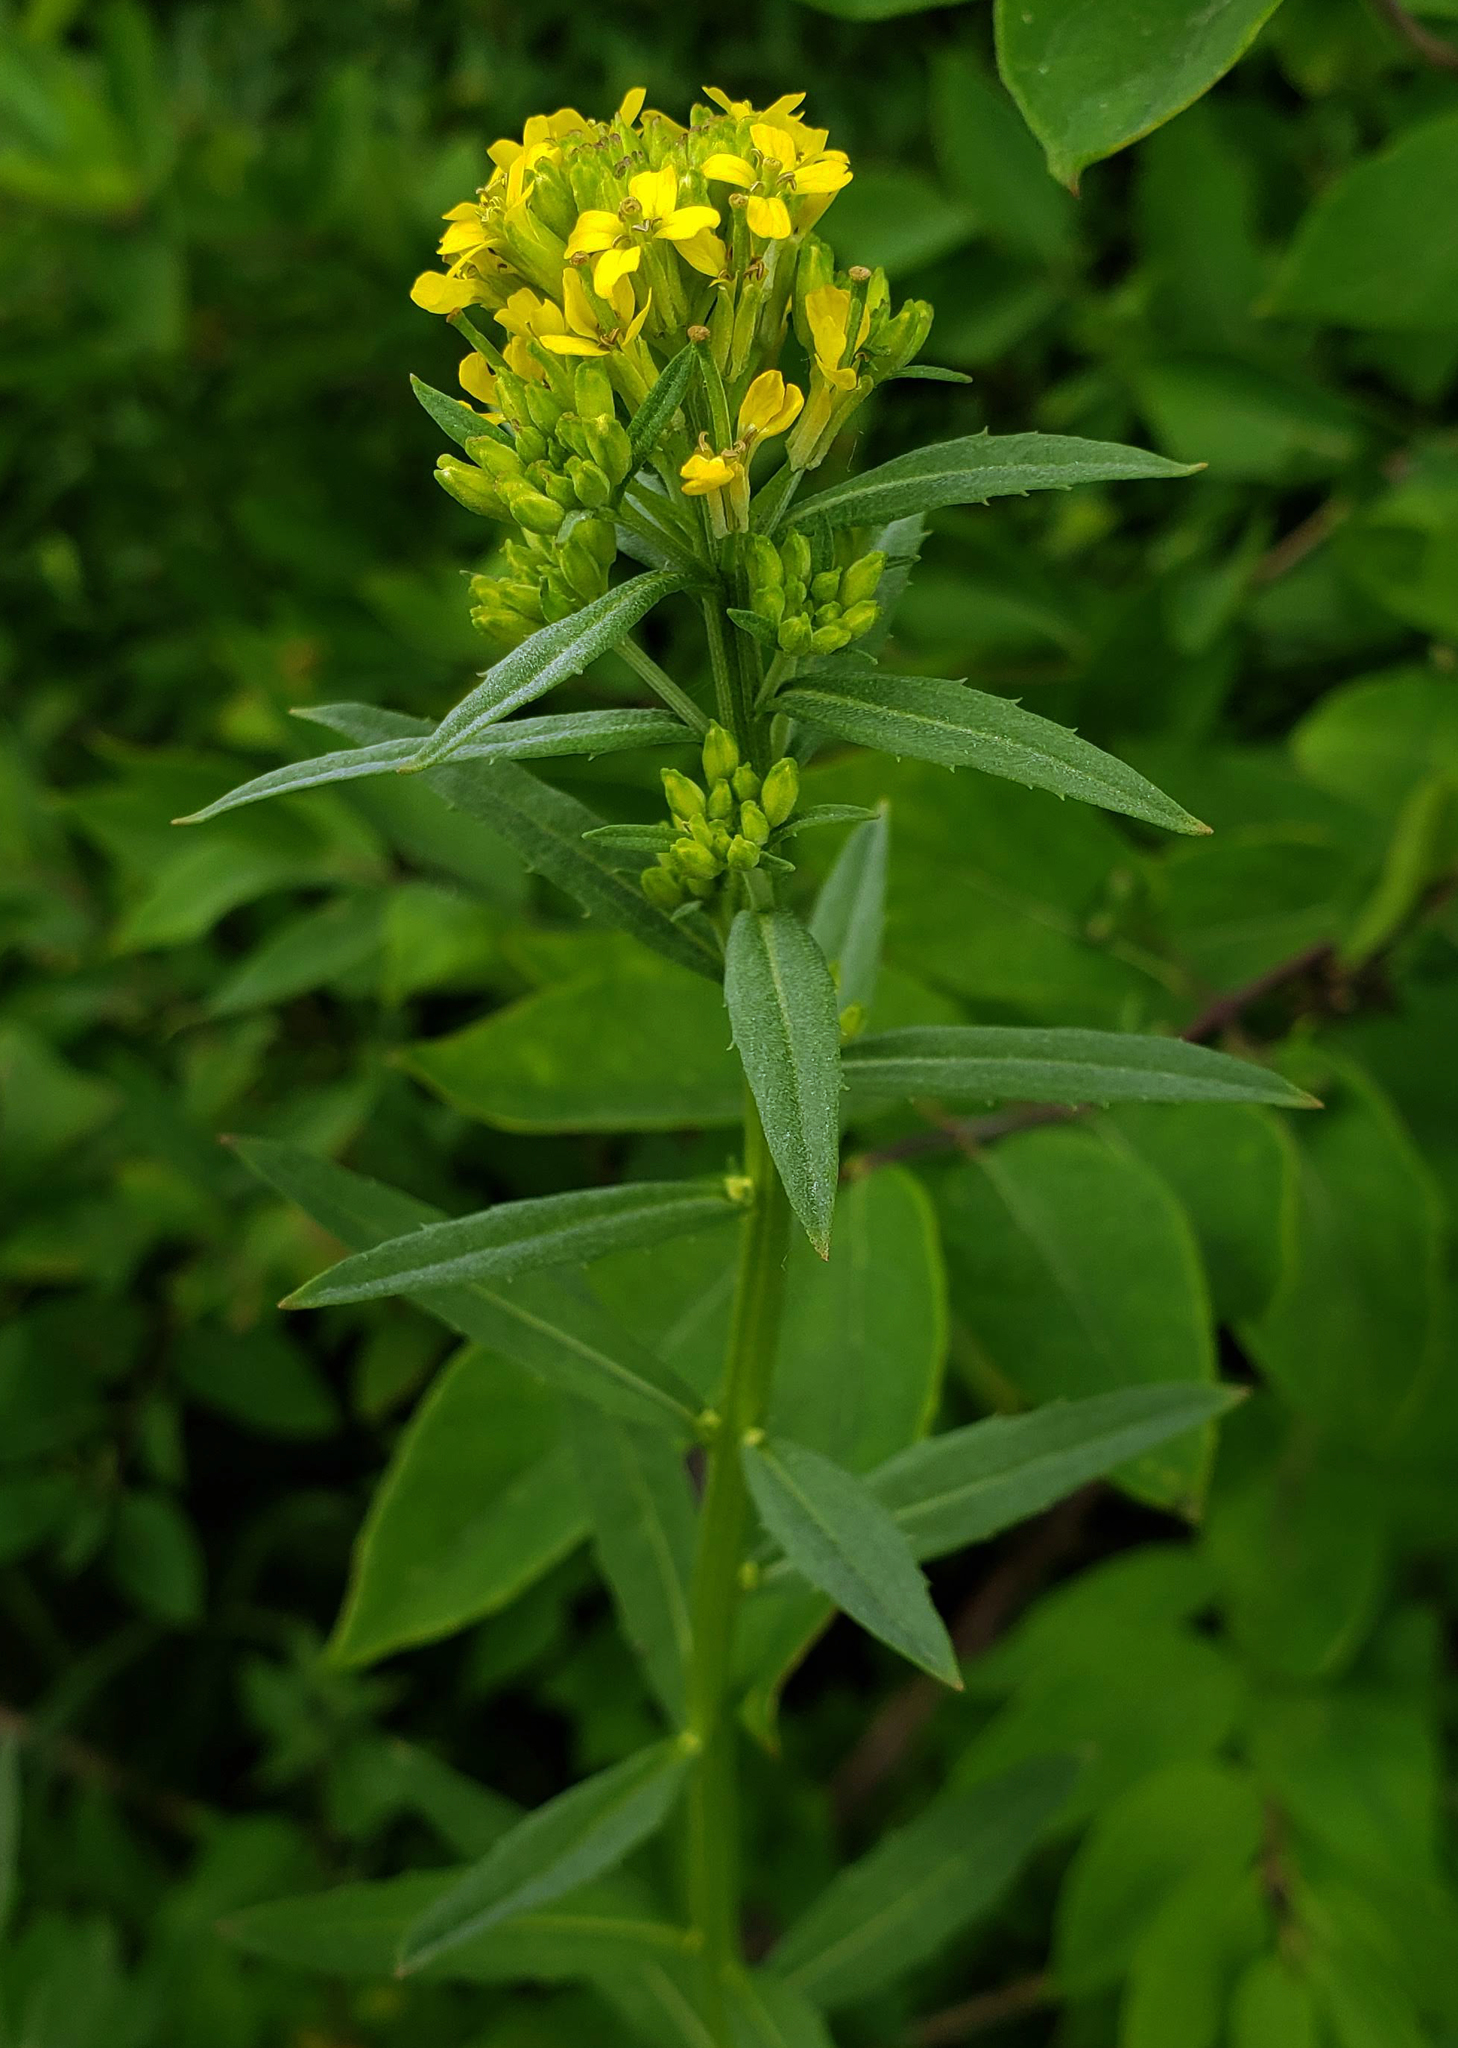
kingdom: Plantae
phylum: Tracheophyta
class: Magnoliopsida
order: Brassicales
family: Brassicaceae
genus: Erysimum
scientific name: Erysimum cheiranthoides
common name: Treacle mustard
